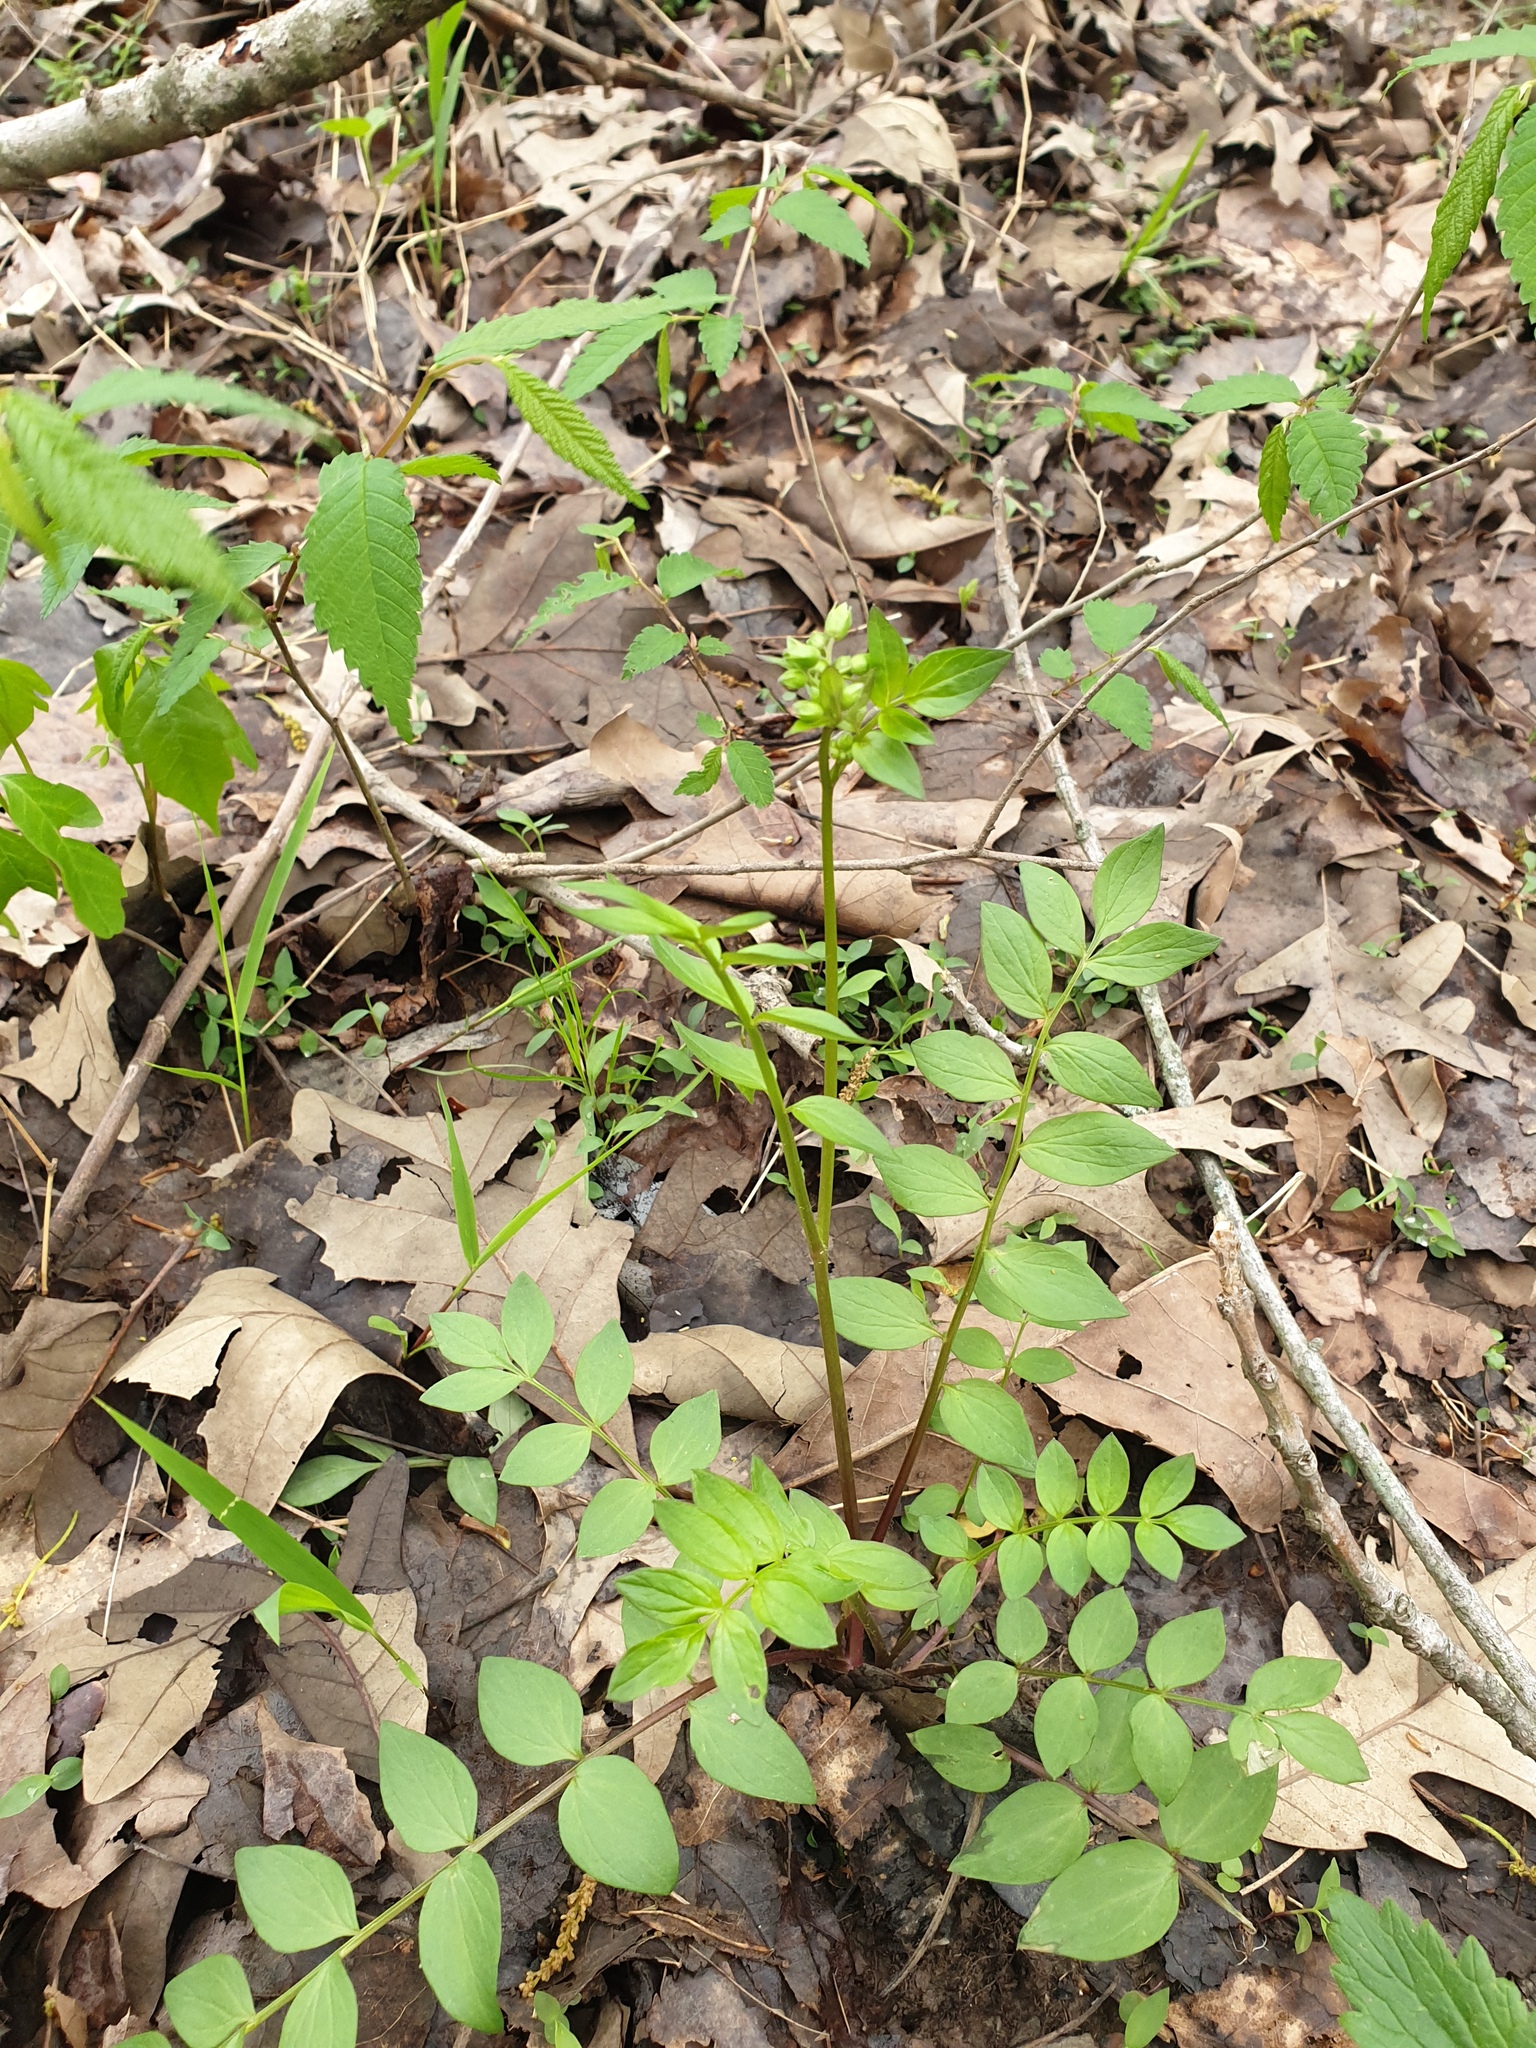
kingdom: Plantae
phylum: Tracheophyta
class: Magnoliopsida
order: Ericales
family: Polemoniaceae
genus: Polemonium
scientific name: Polemonium reptans
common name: Creeping jacob's-ladder
